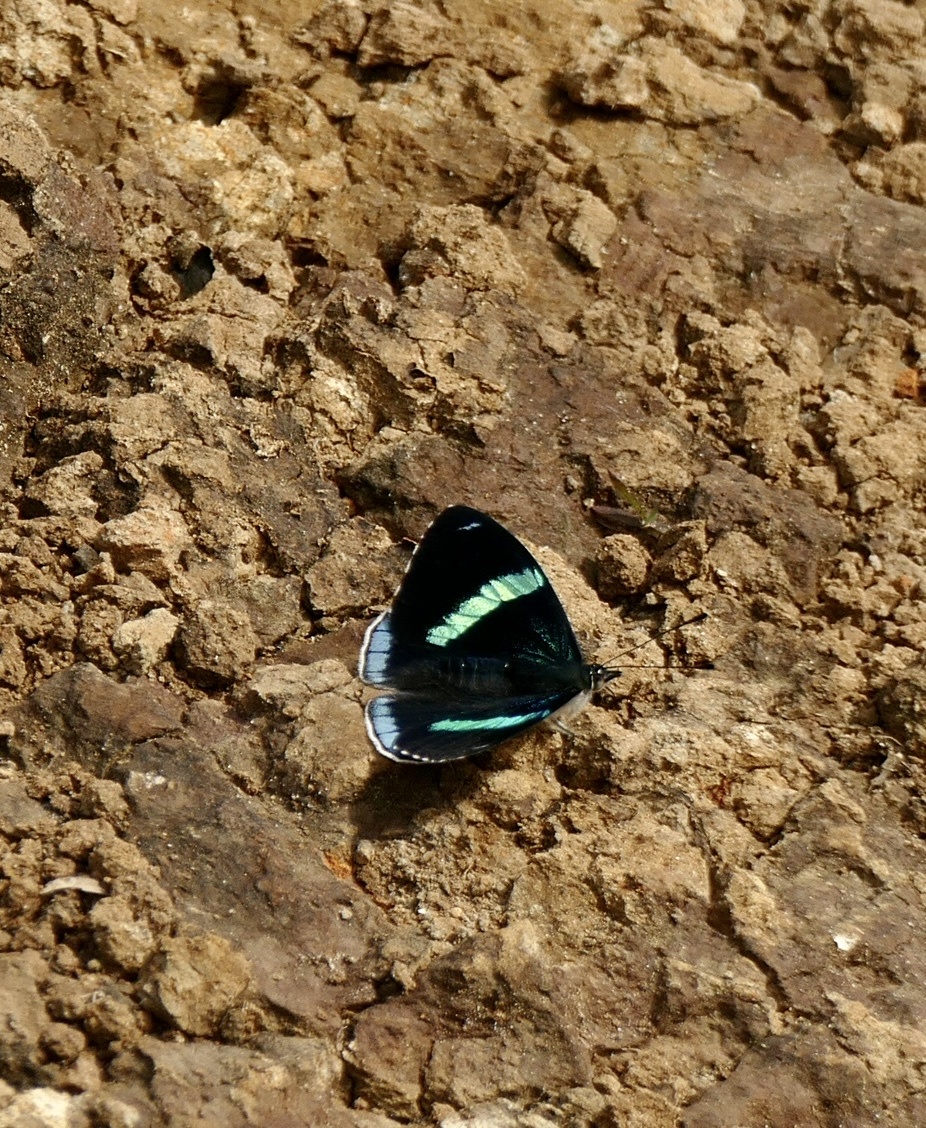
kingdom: Animalia
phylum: Arthropoda
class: Insecta
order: Lepidoptera
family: Nymphalidae
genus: Perisama
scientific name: Perisama bomplandii
